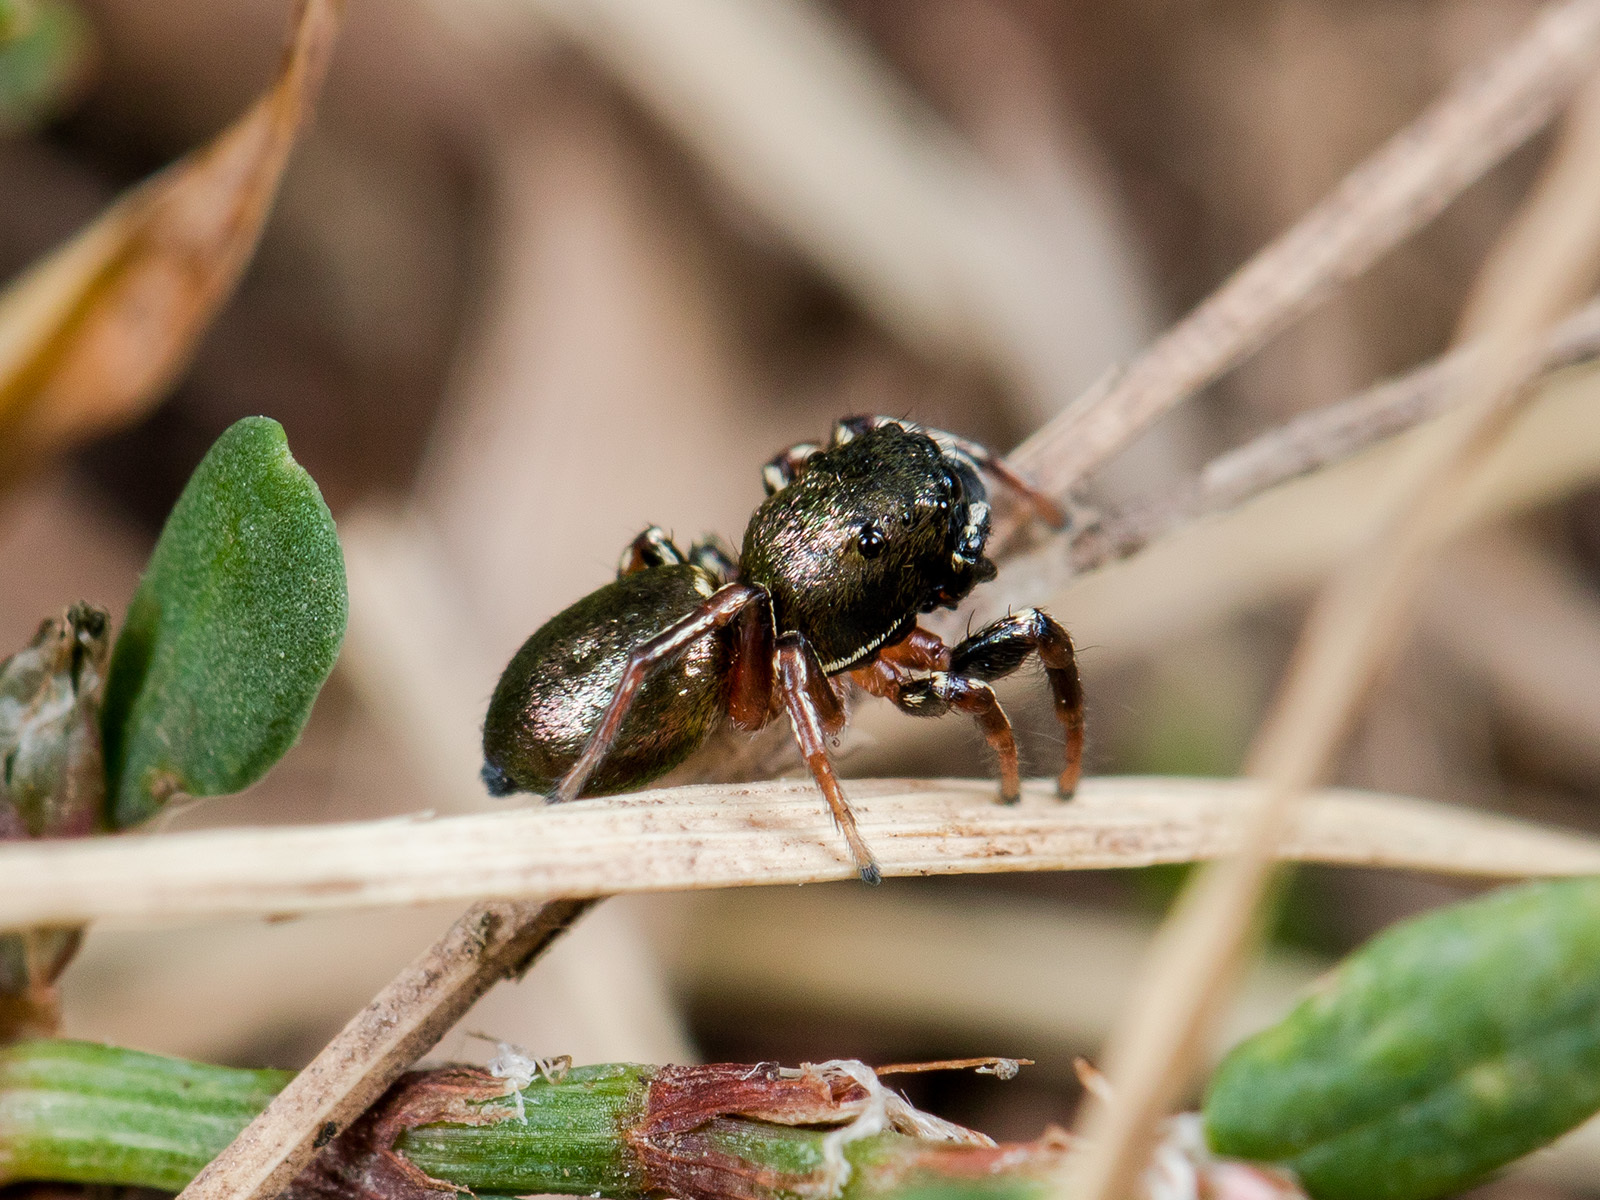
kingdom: Animalia
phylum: Arthropoda
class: Arachnida
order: Araneae
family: Salticidae
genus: Heliophanus
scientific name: Heliophanus auratus
